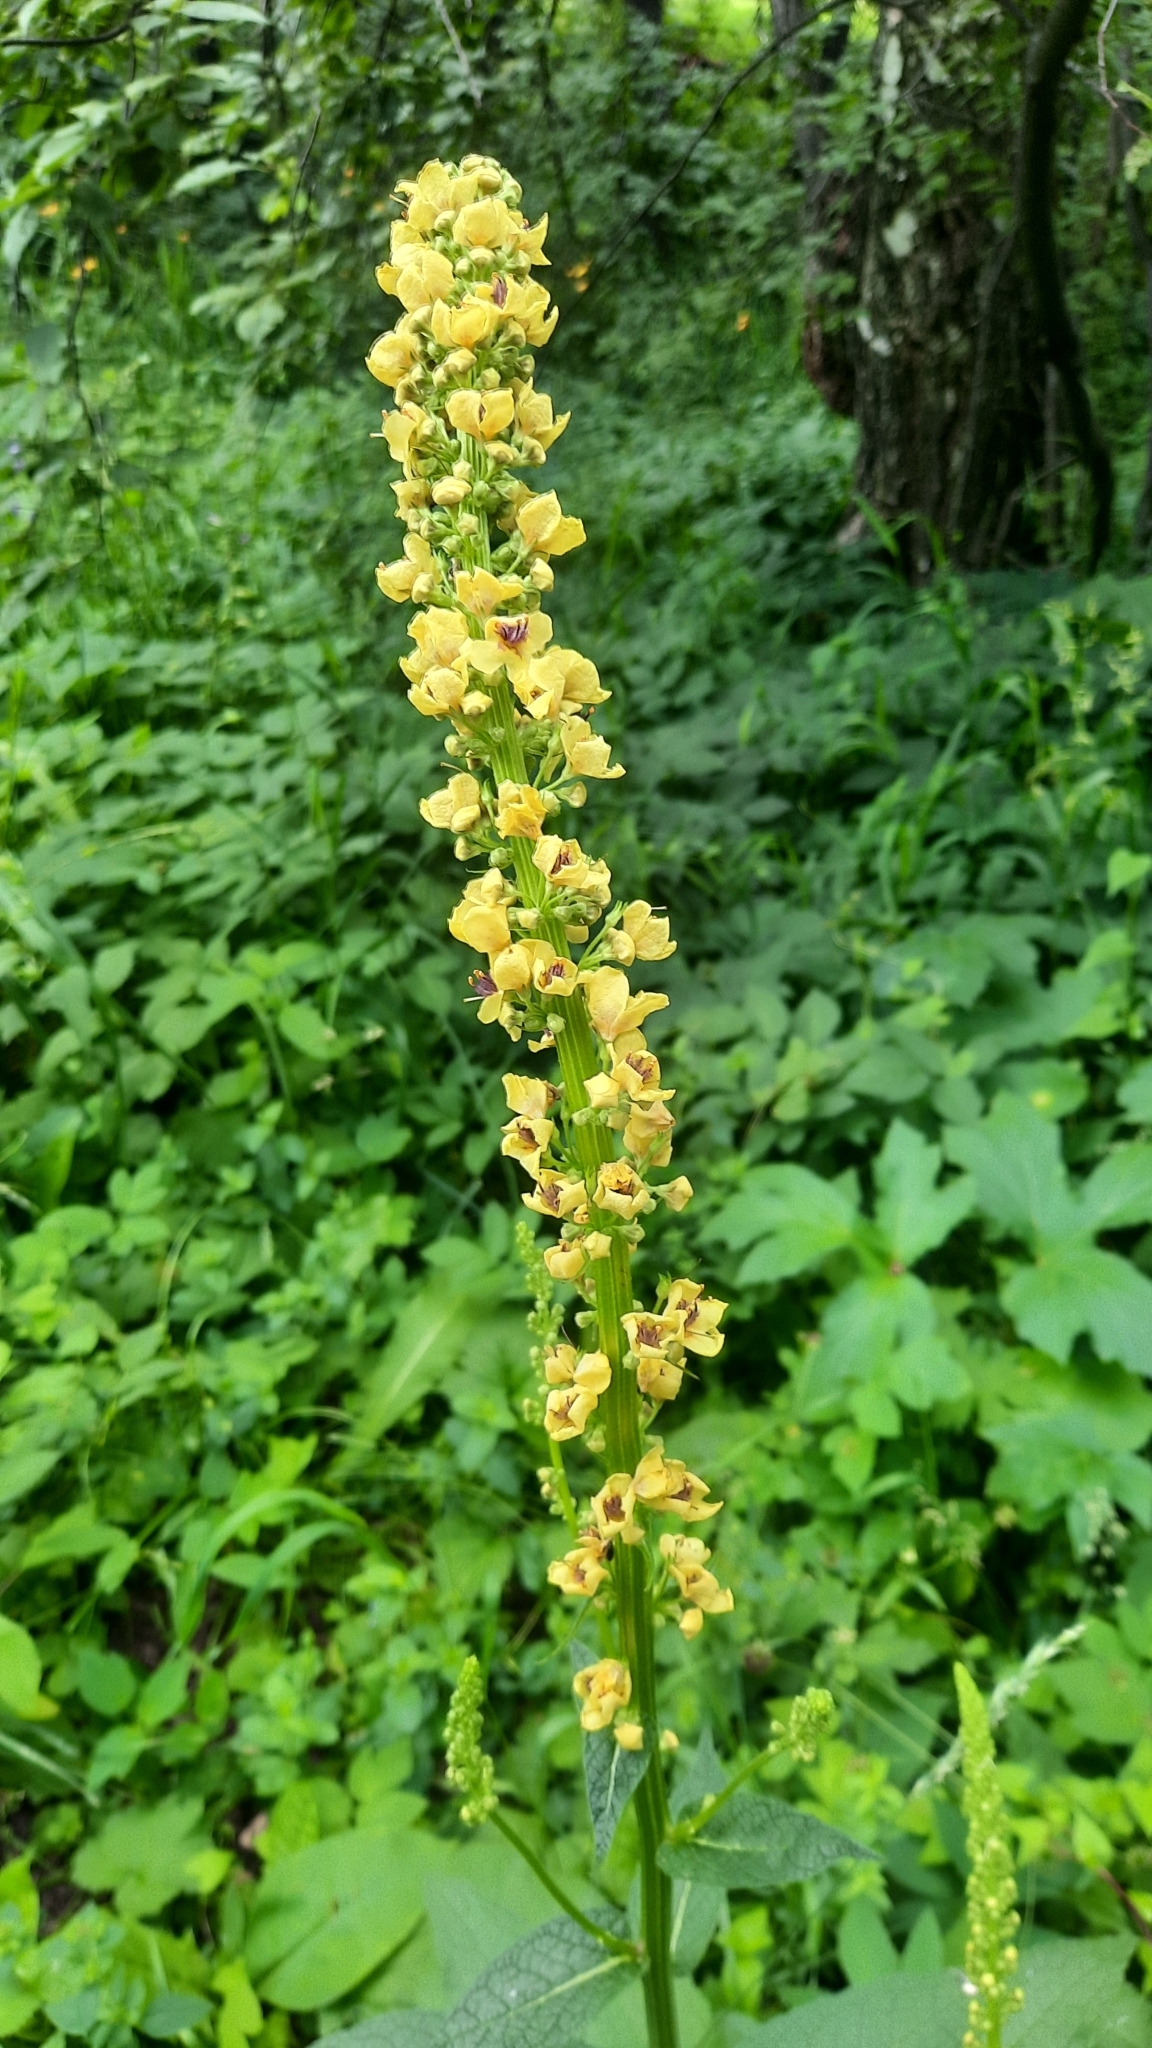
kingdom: Plantae
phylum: Tracheophyta
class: Magnoliopsida
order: Lamiales
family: Scrophulariaceae
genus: Verbascum
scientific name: Verbascum nigrum
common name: Dark mullein
